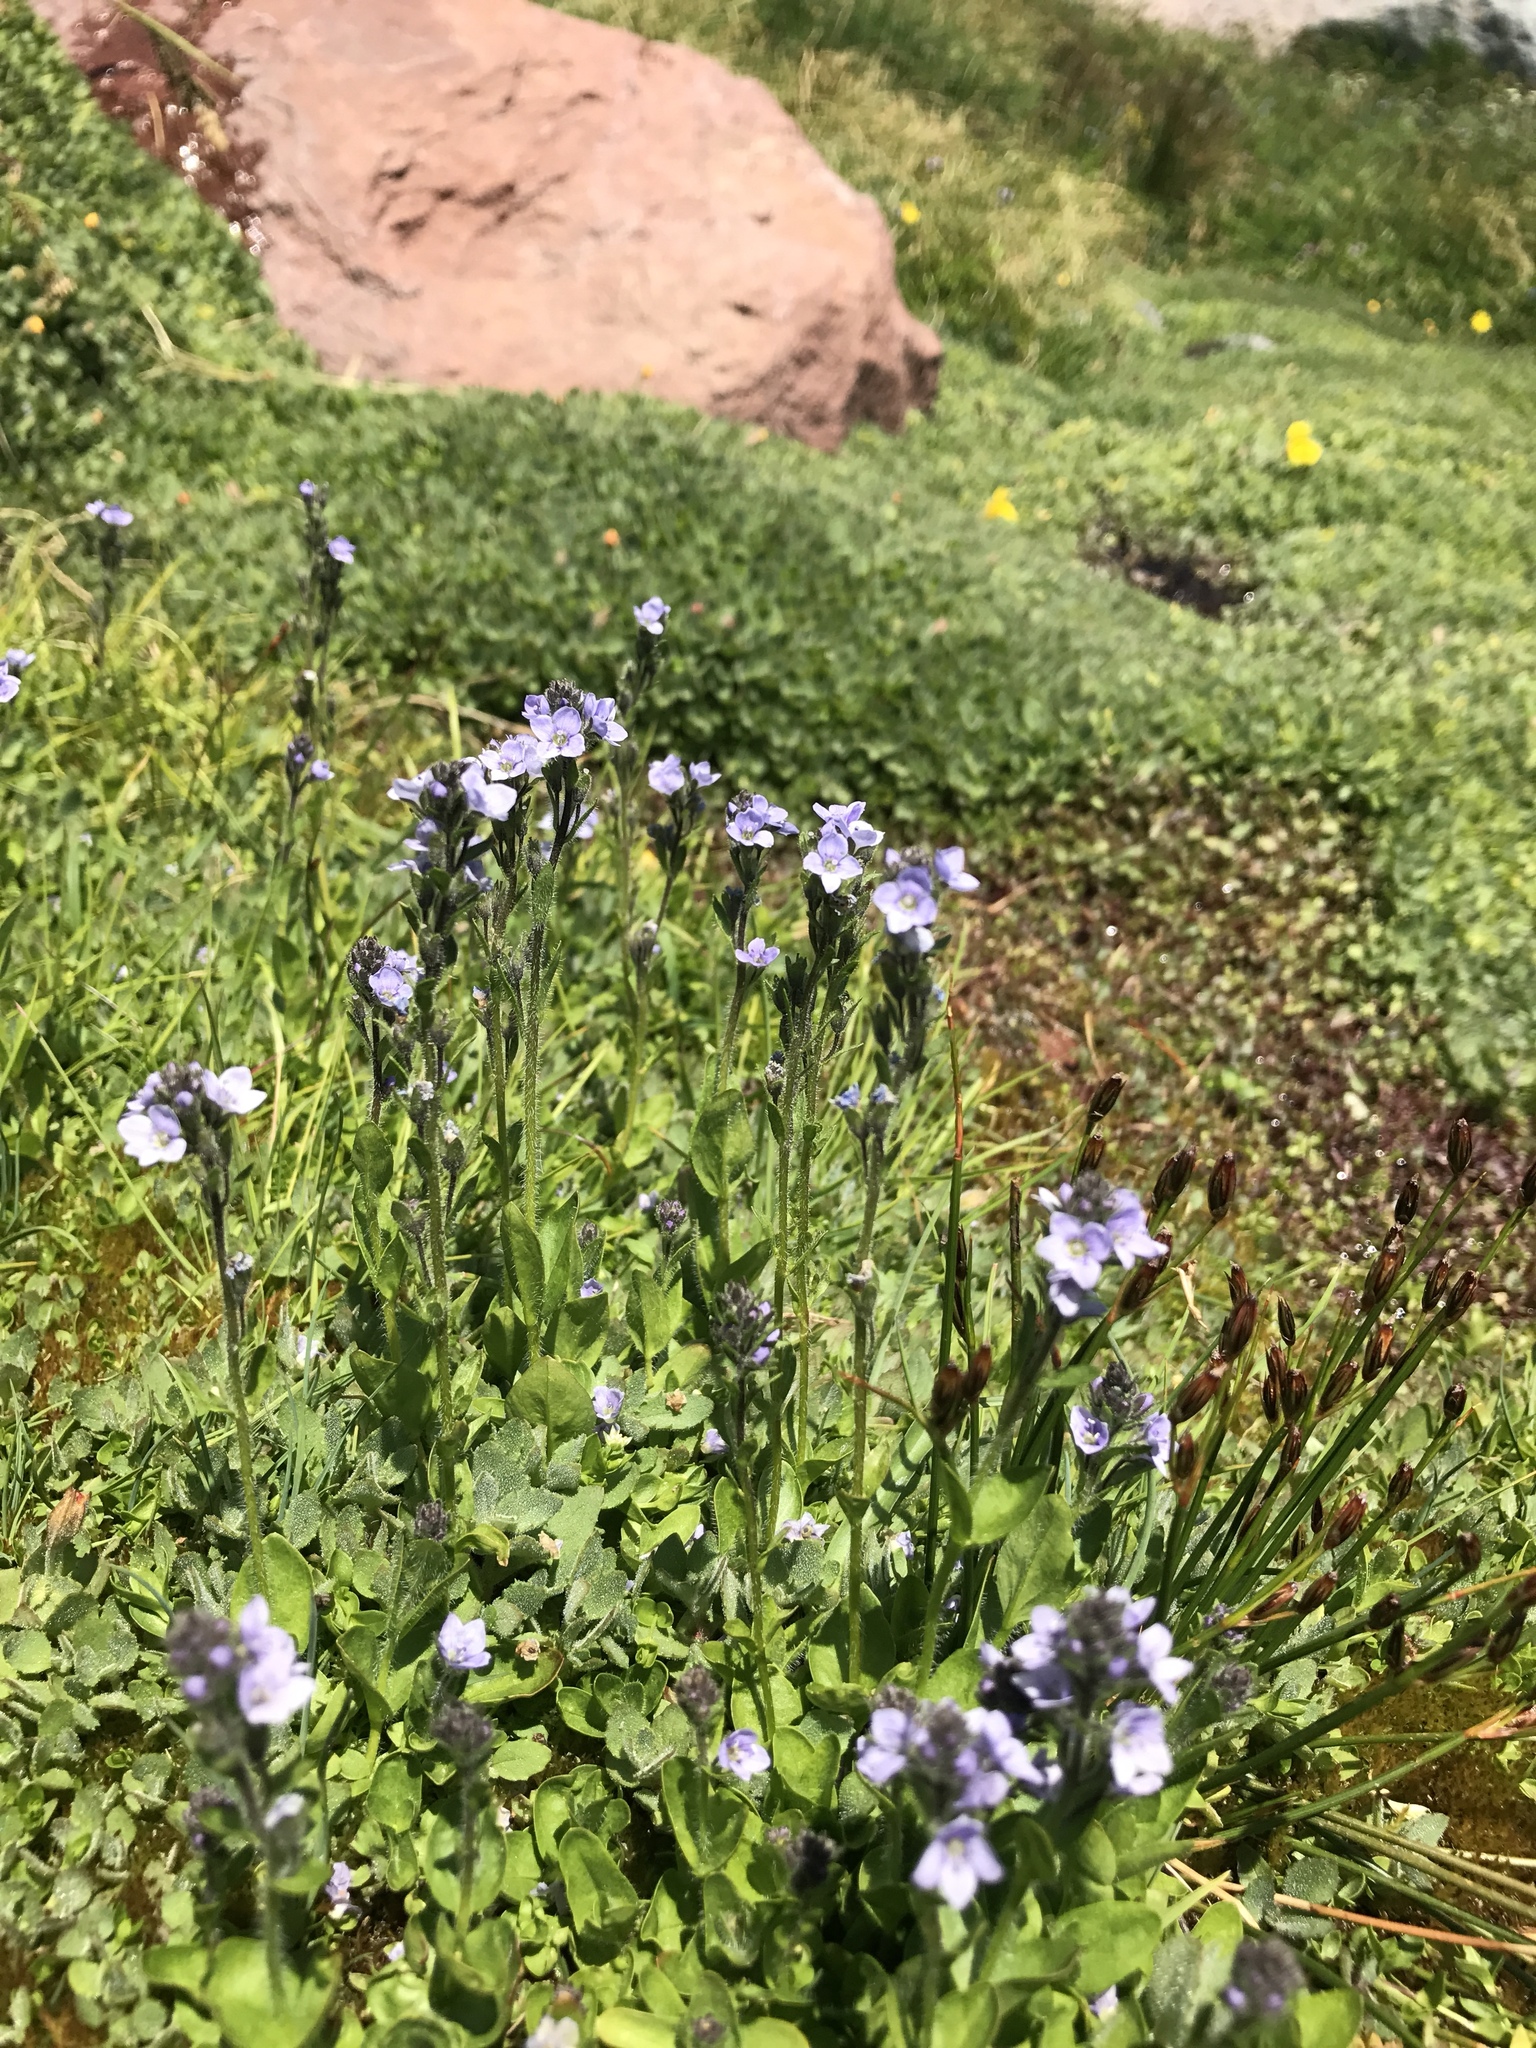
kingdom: Plantae
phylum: Tracheophyta
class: Magnoliopsida
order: Lamiales
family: Plantaginaceae
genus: Veronica
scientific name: Veronica wormskjoldii
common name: American alpine speedwell
